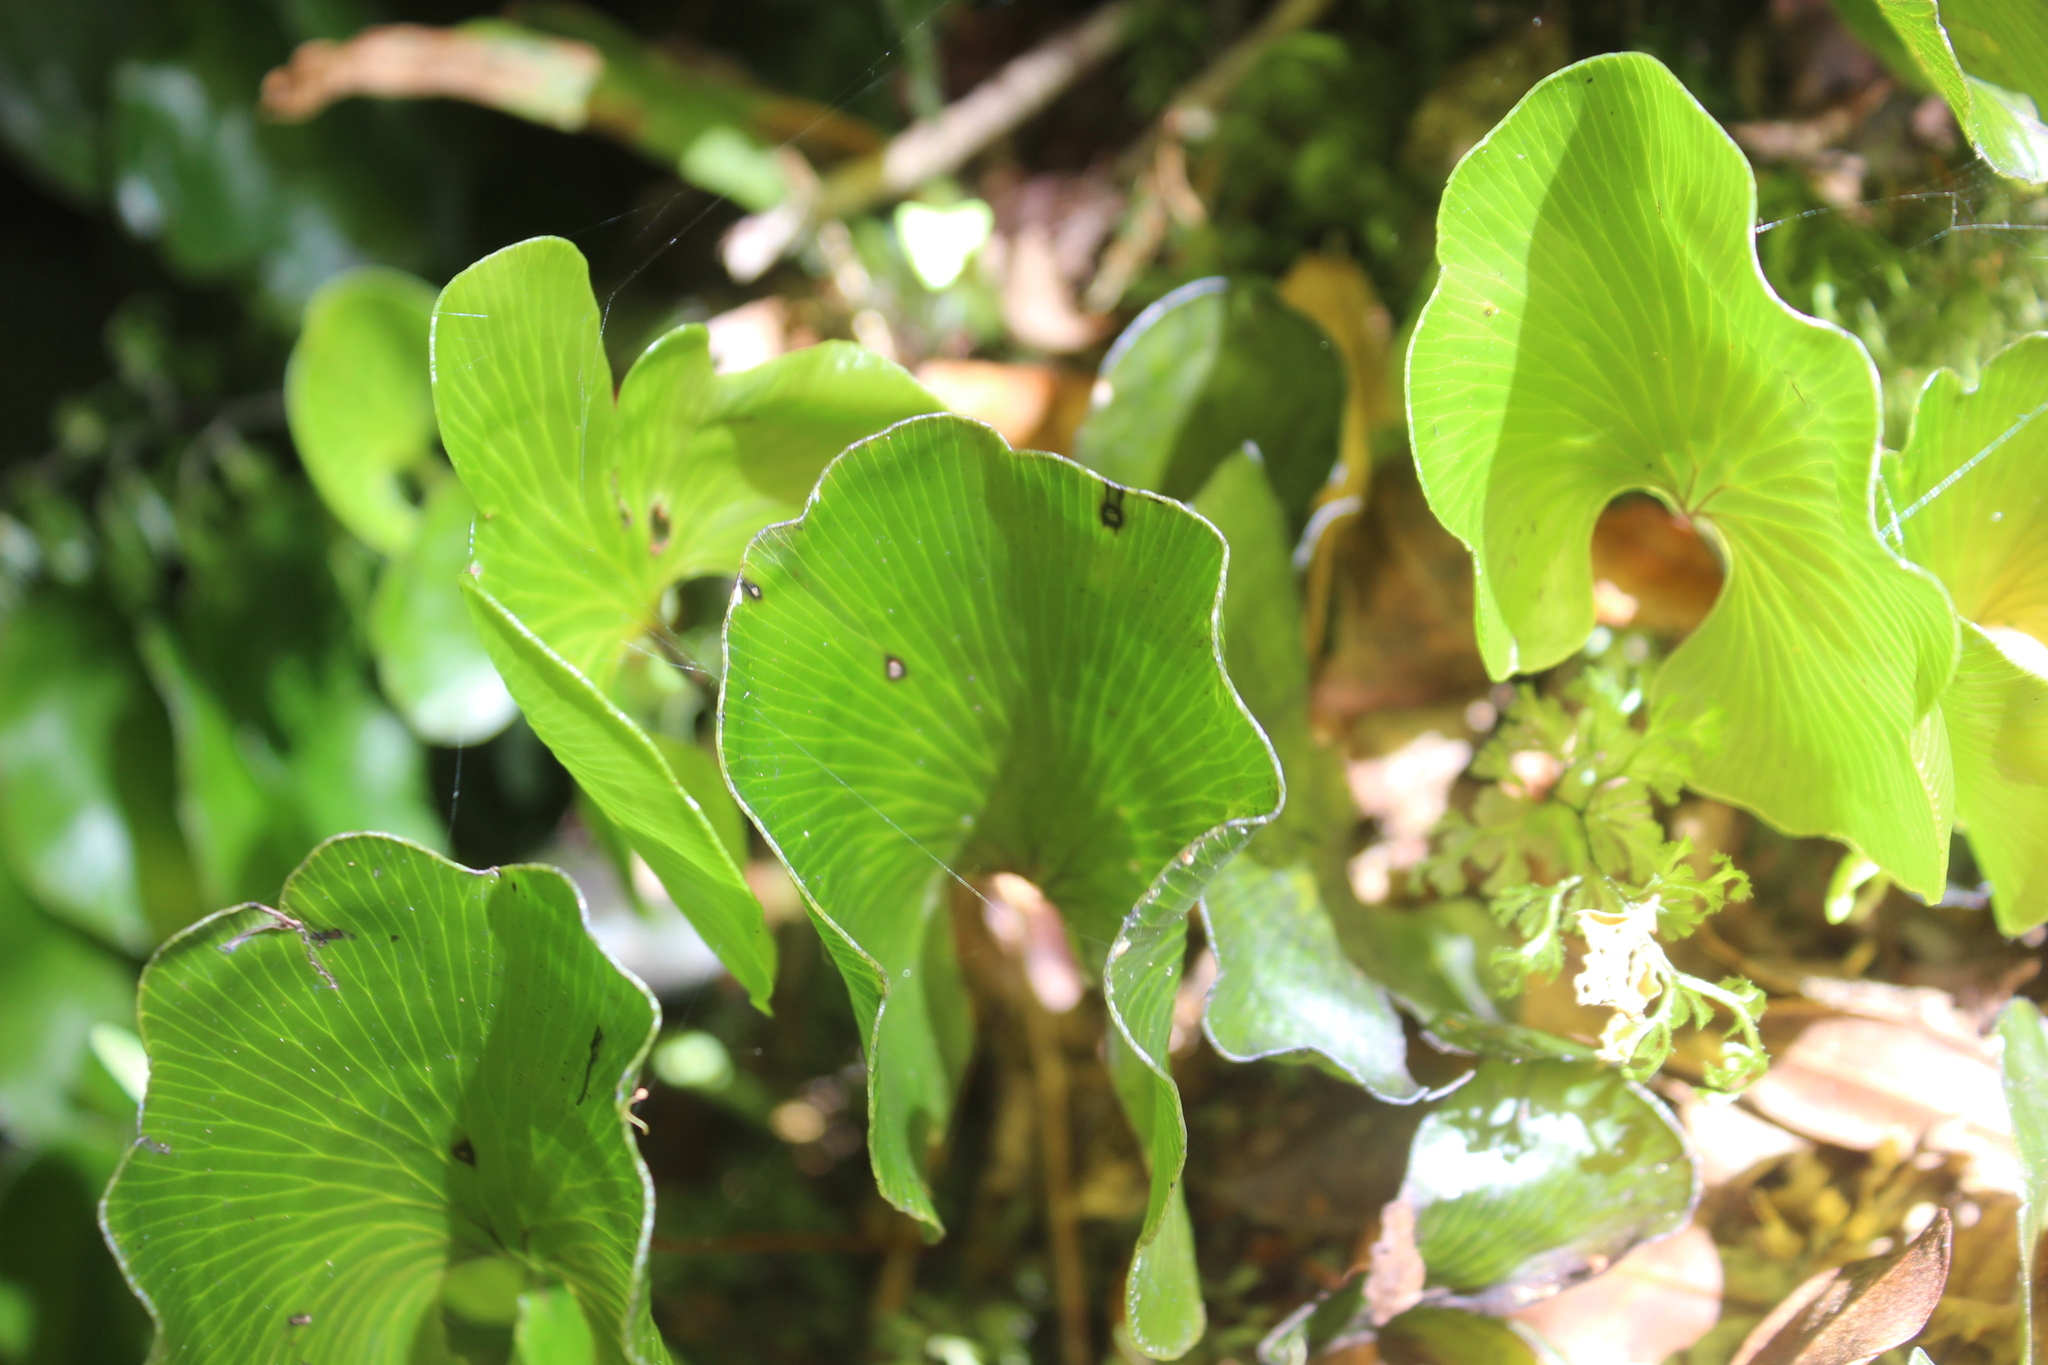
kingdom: Plantae
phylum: Tracheophyta
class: Polypodiopsida
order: Hymenophyllales
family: Hymenophyllaceae
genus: Hymenophyllum
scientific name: Hymenophyllum nephrophyllum
